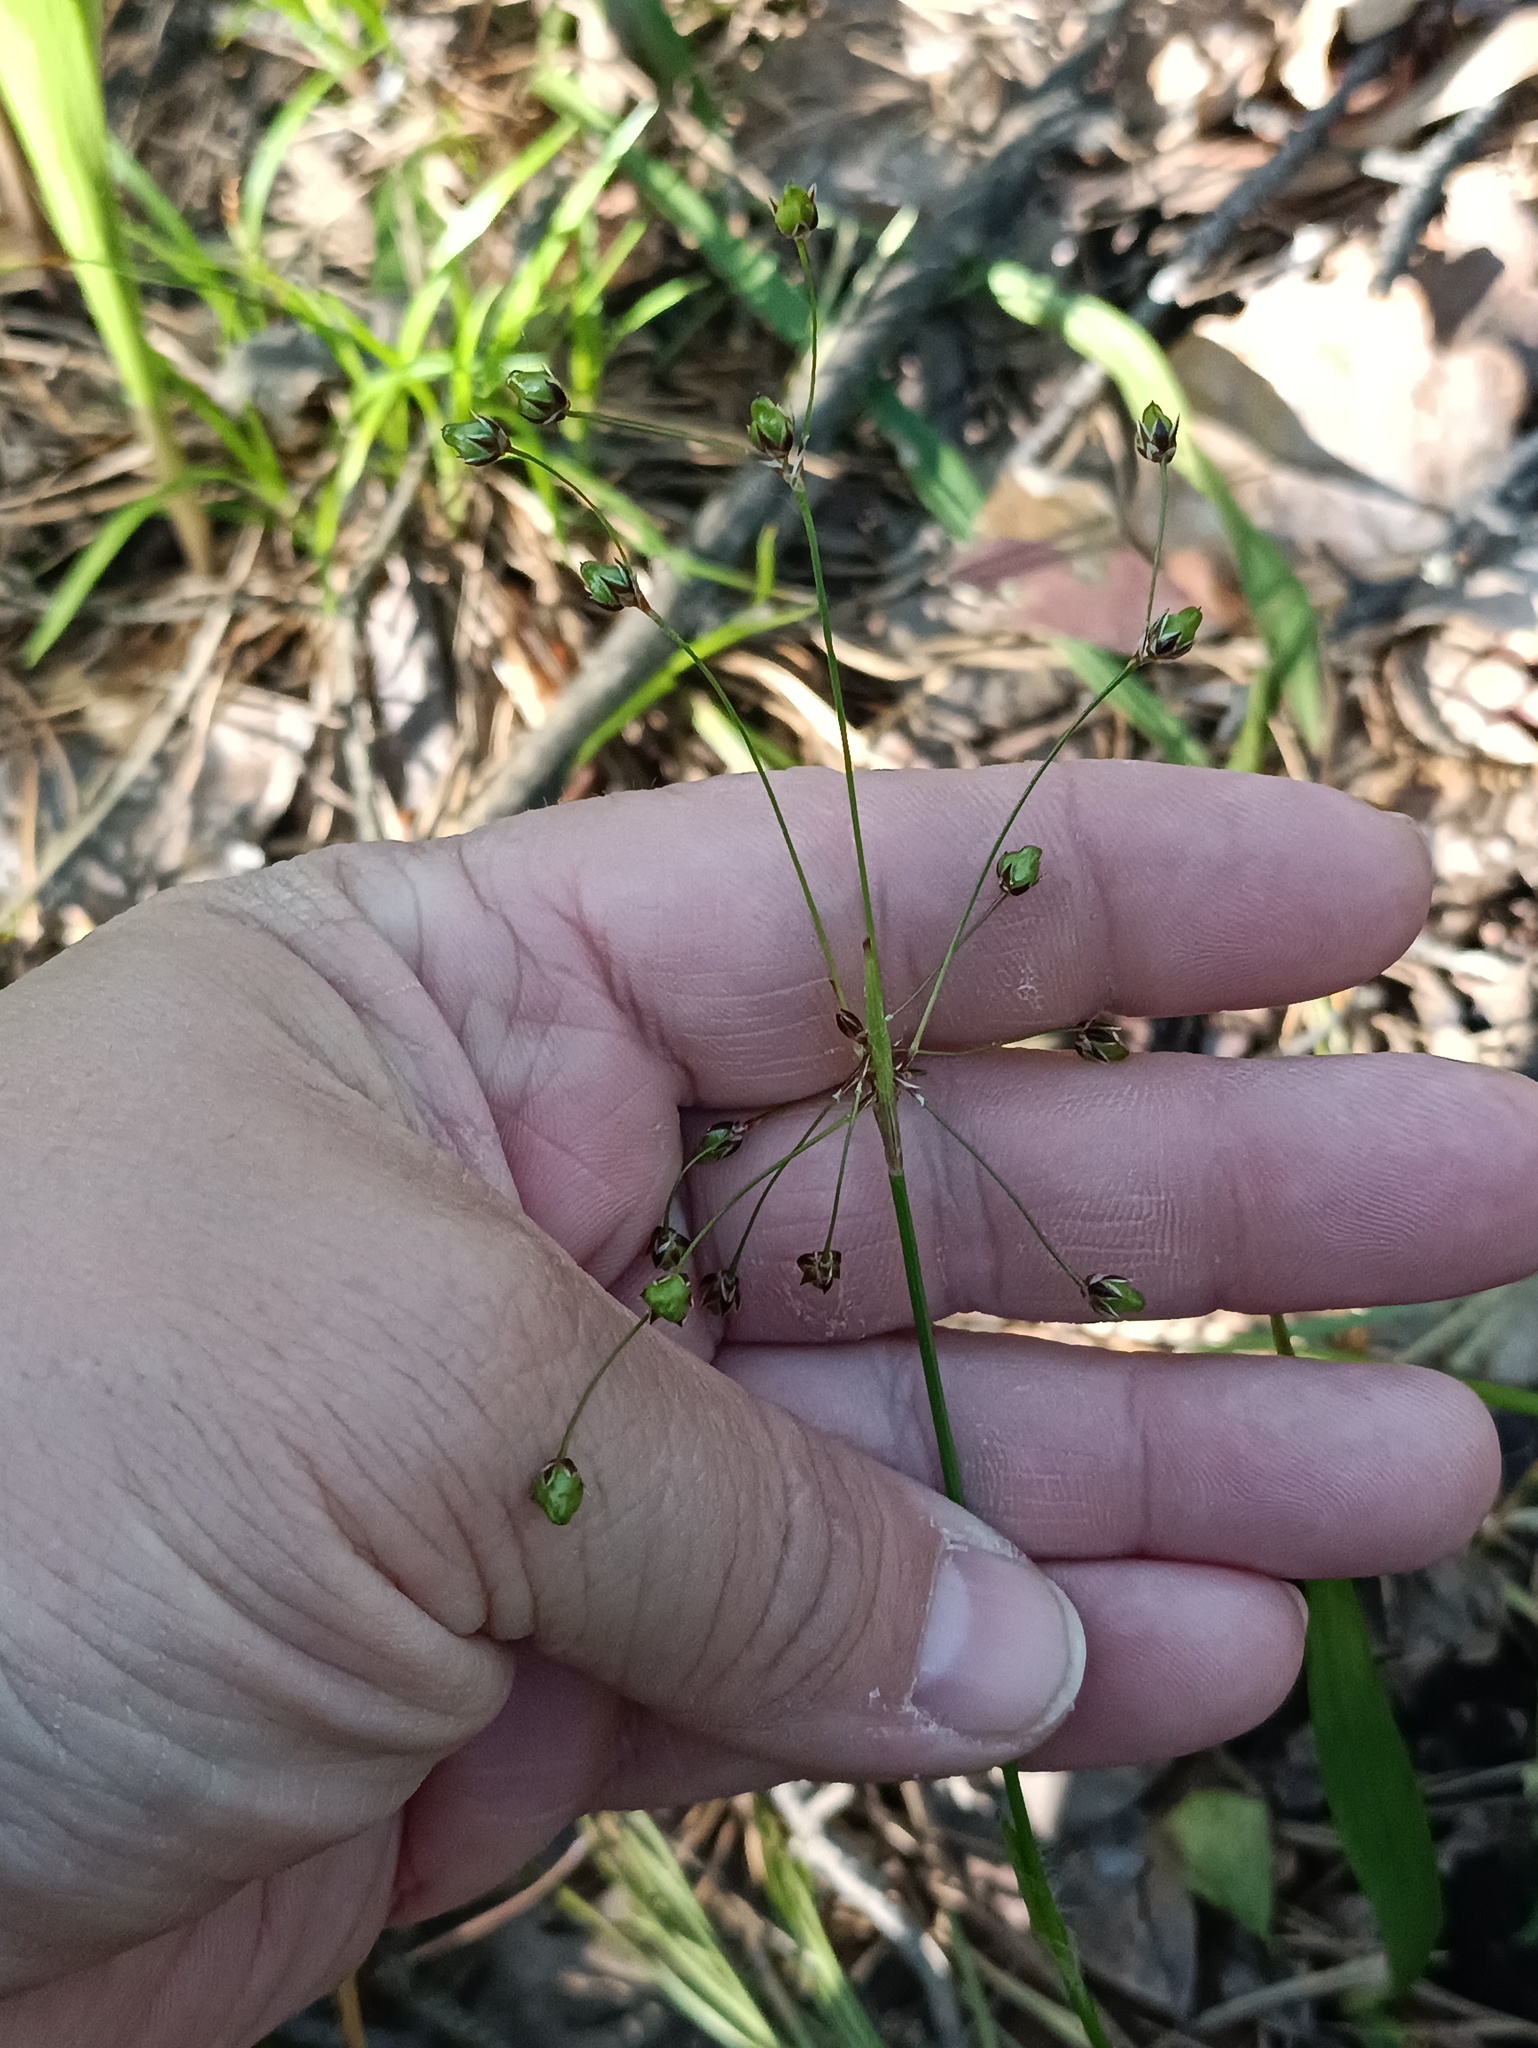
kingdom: Plantae
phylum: Tracheophyta
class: Liliopsida
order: Poales
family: Juncaceae
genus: Luzula
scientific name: Luzula pilosa
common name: Hairy wood-rush
